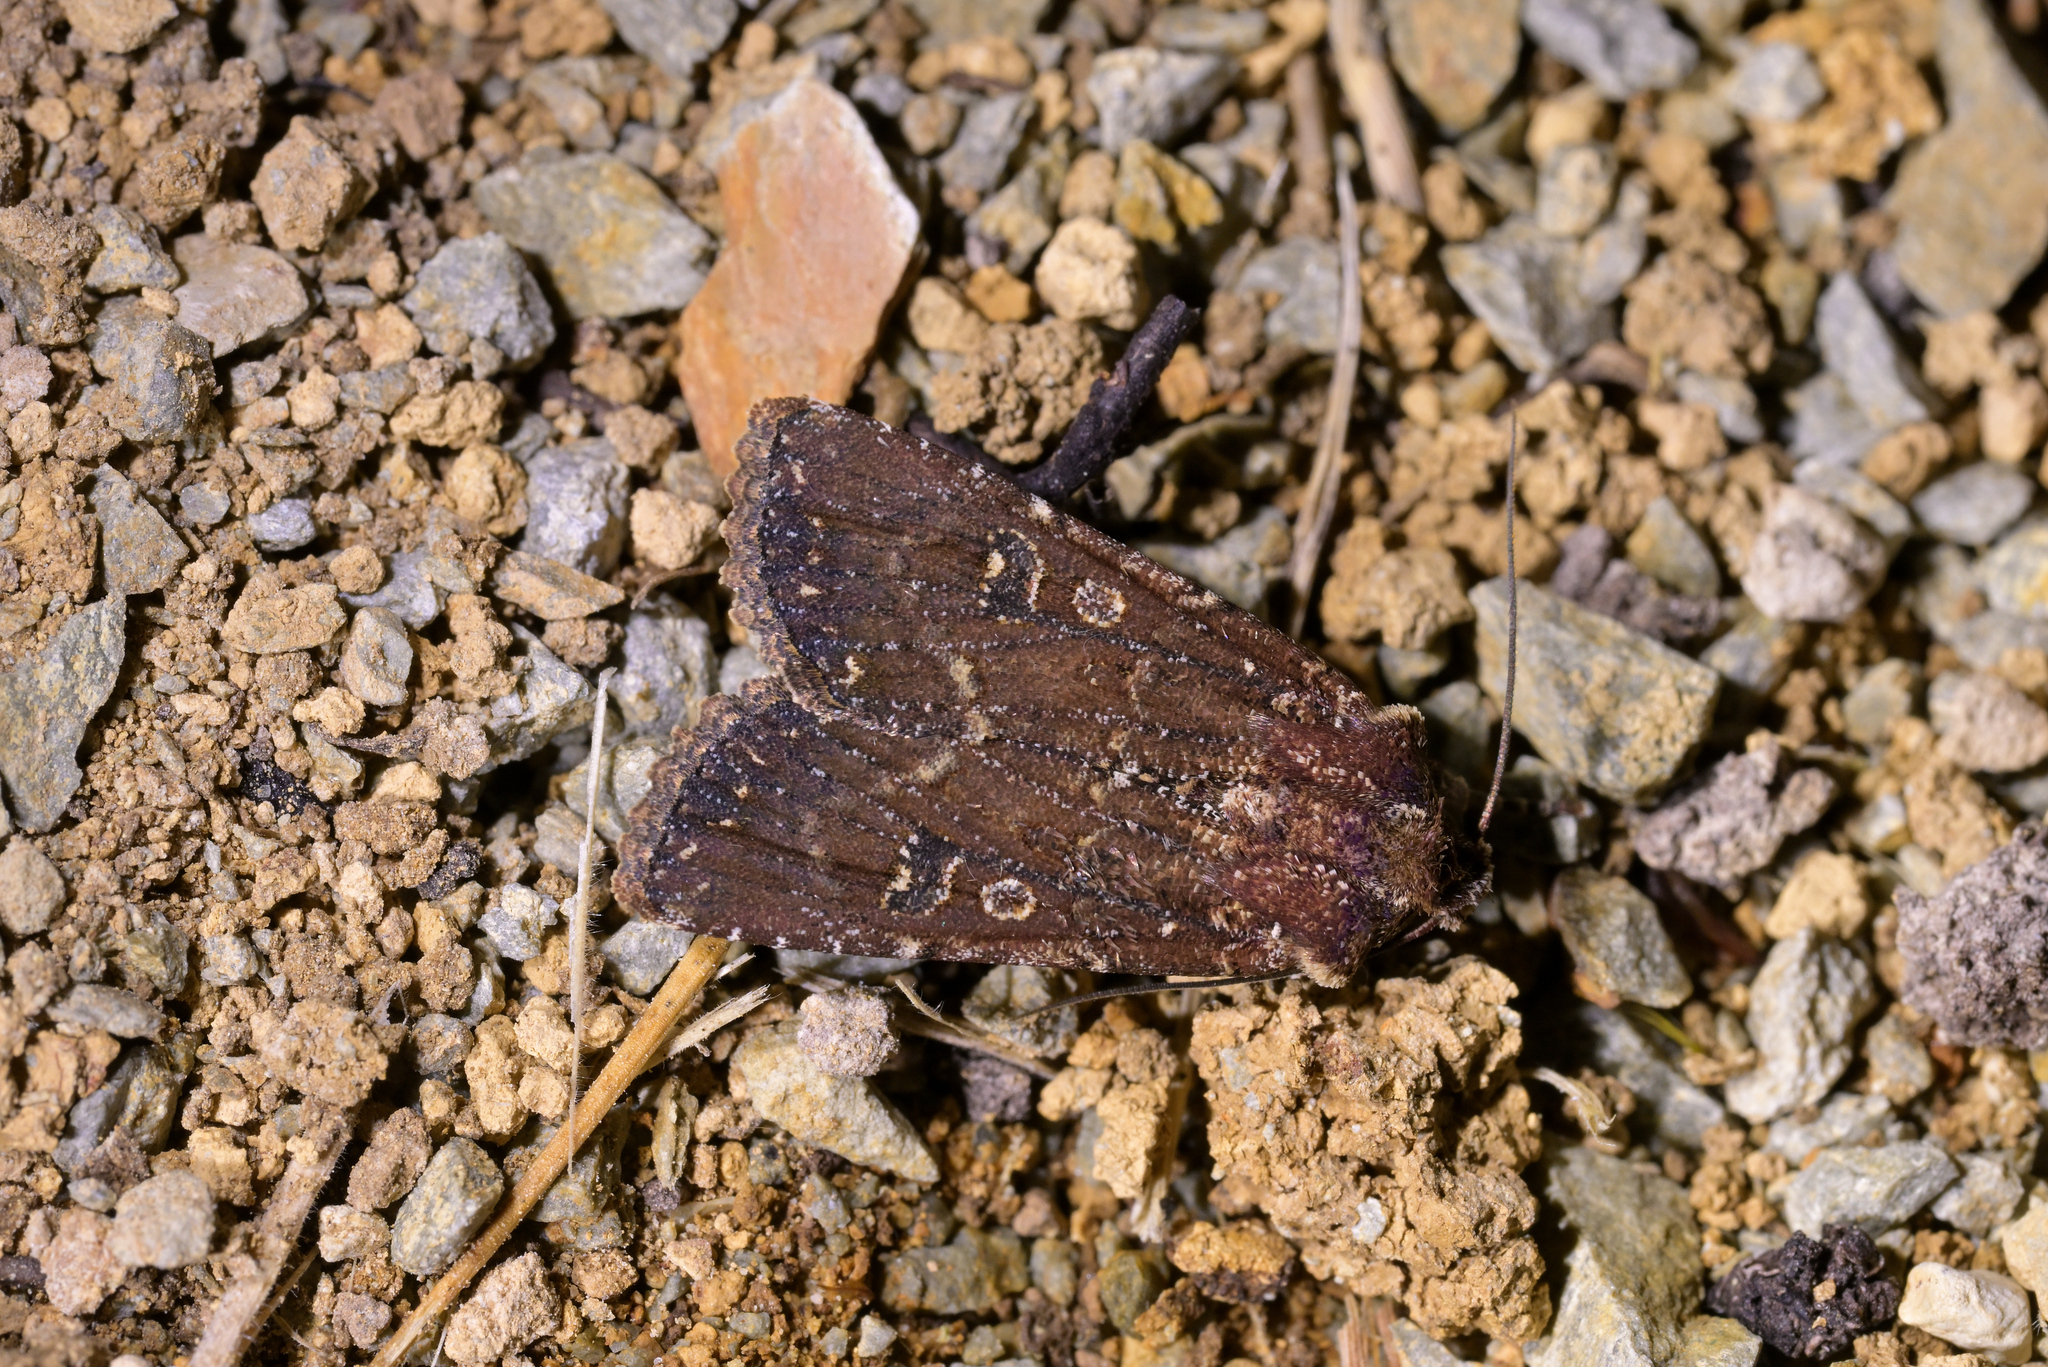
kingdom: Animalia
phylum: Arthropoda
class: Insecta
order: Lepidoptera
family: Noctuidae
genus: Ichneutica
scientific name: Ichneutica mustulenta
